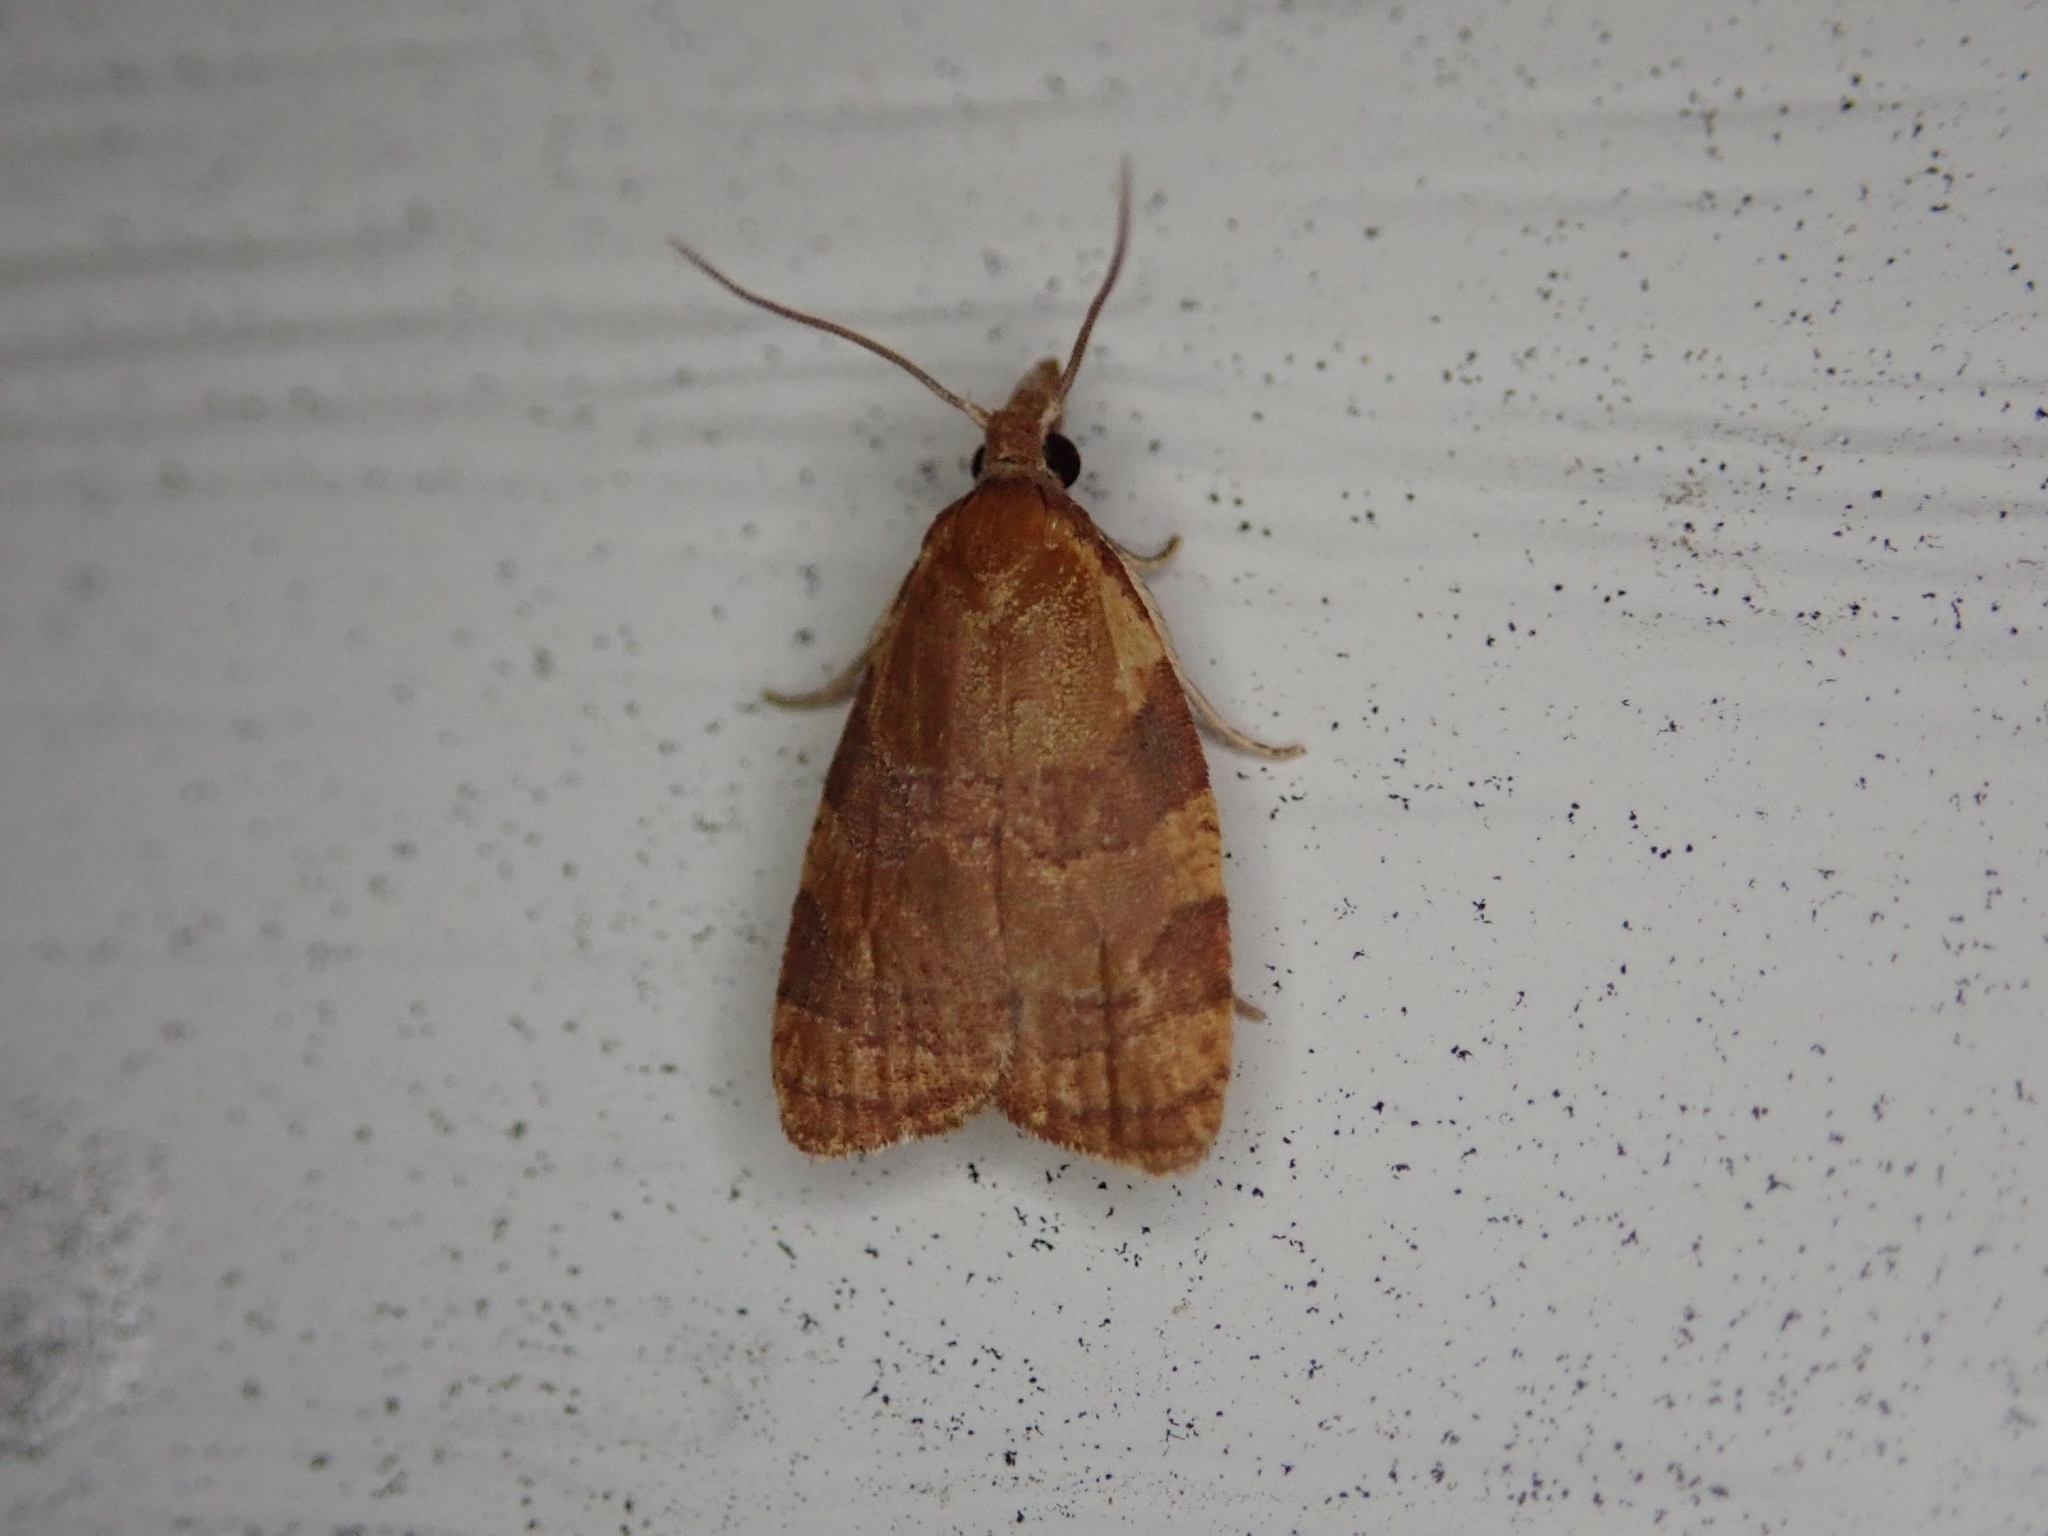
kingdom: Animalia
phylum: Arthropoda
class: Insecta
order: Lepidoptera
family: Tortricidae
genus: Cenopis
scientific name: Cenopis diluticostana
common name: Spring dead-leaf roller moth
